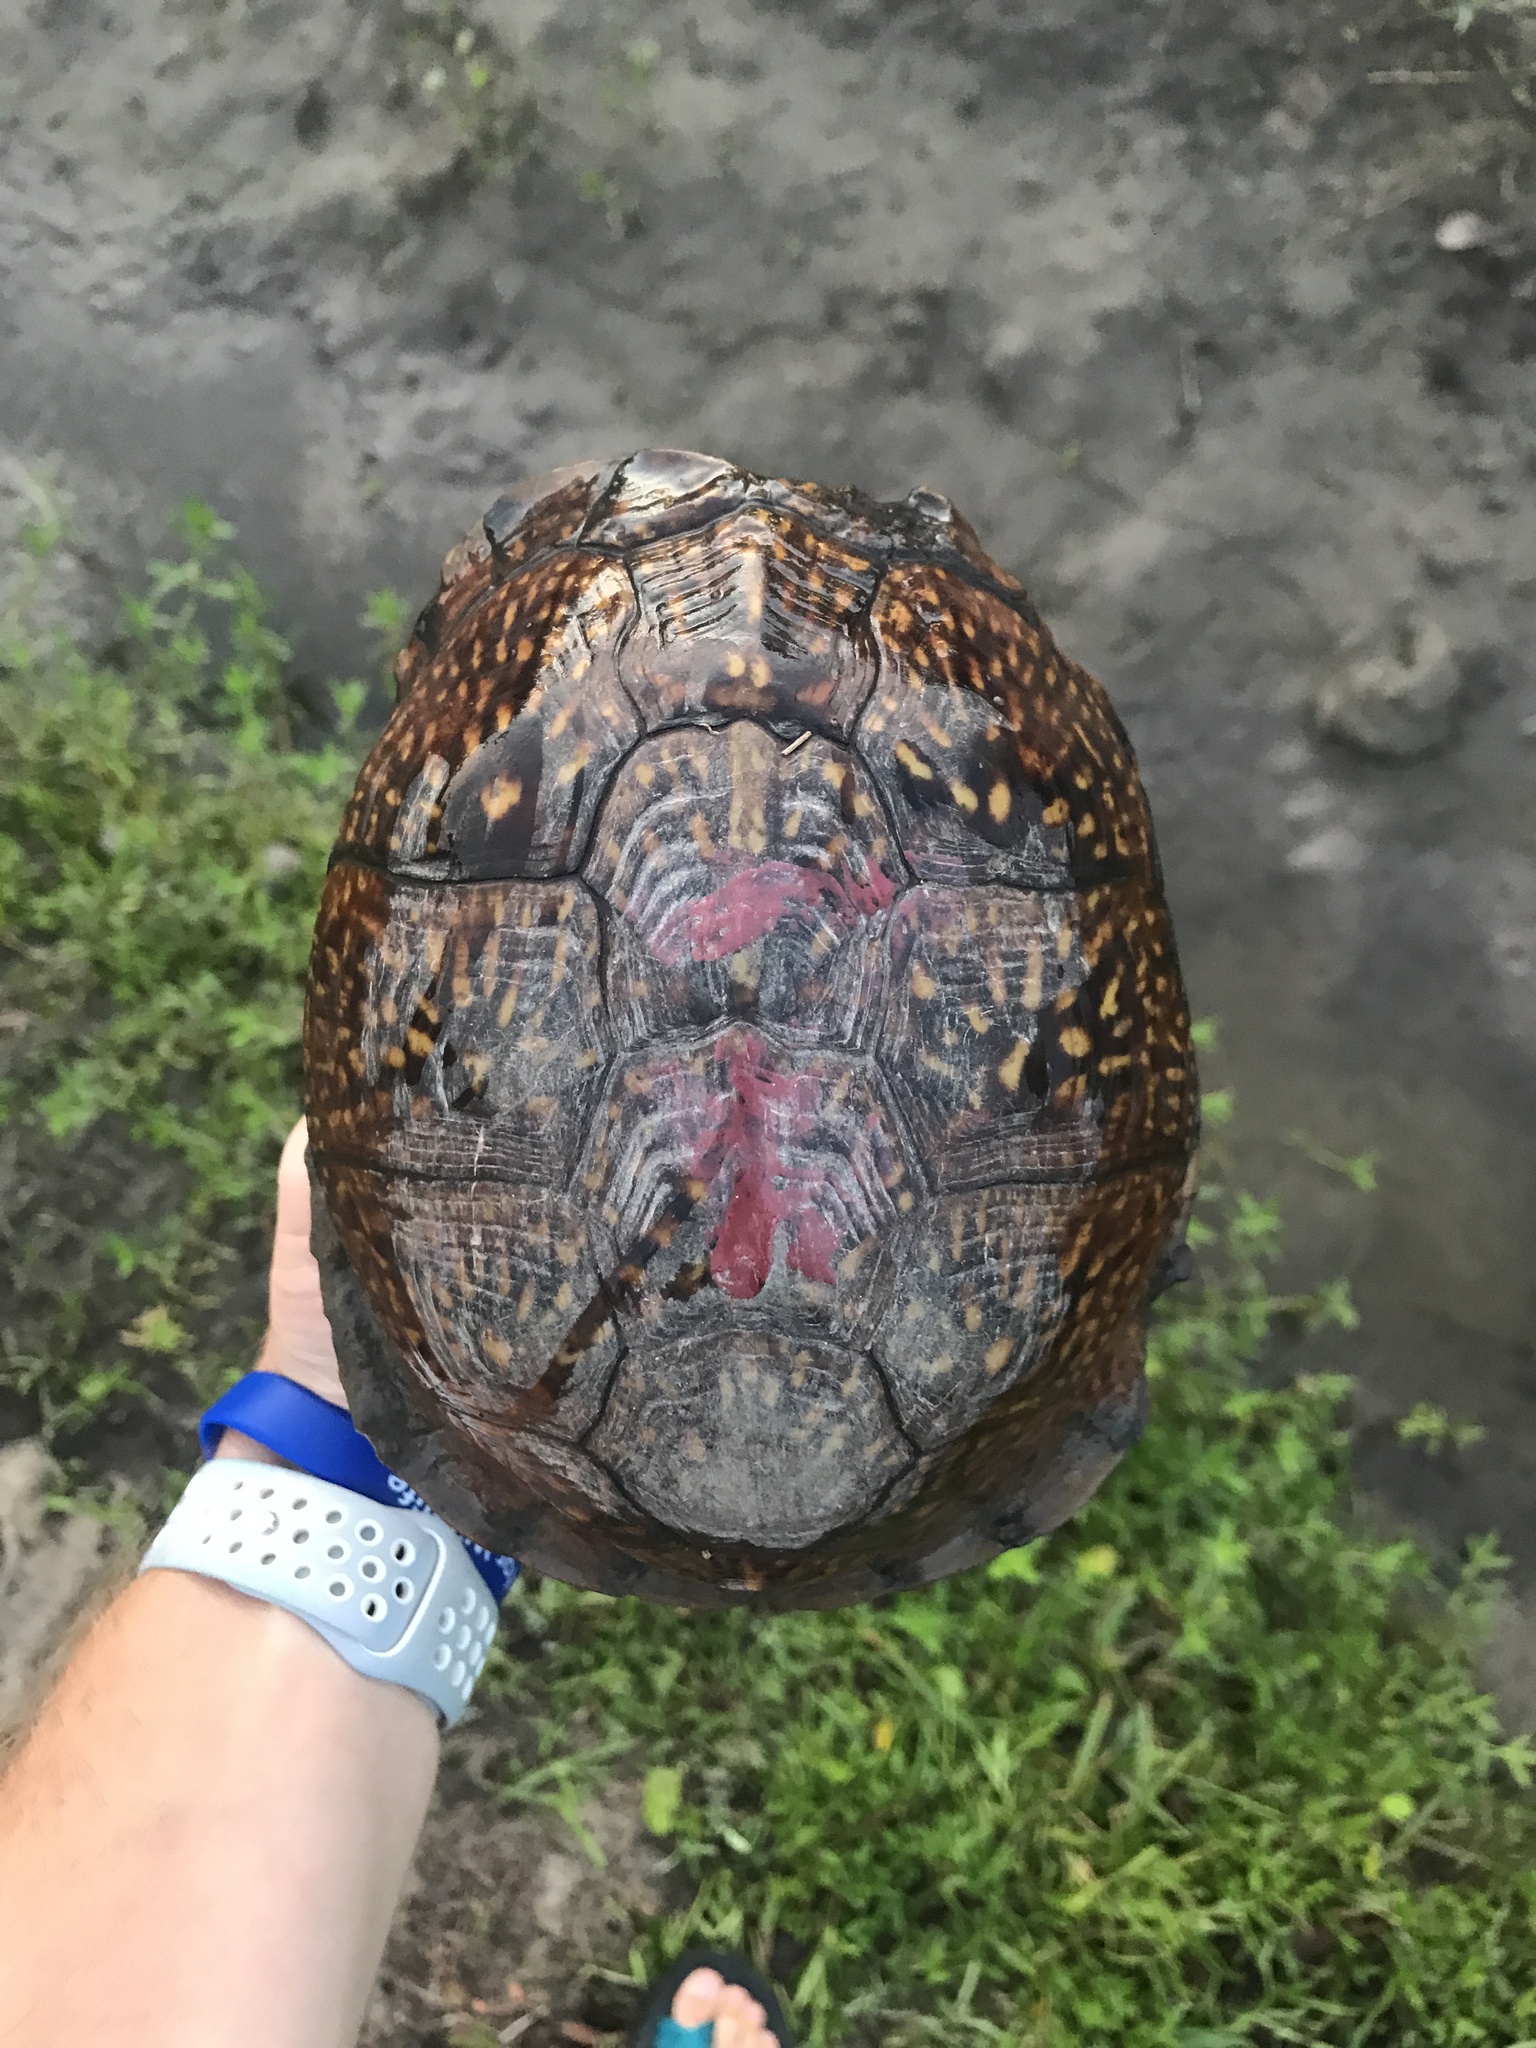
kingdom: Animalia
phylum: Chordata
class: Testudines
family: Emydidae
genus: Terrapene
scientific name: Terrapene carolina
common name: Common box turtle
